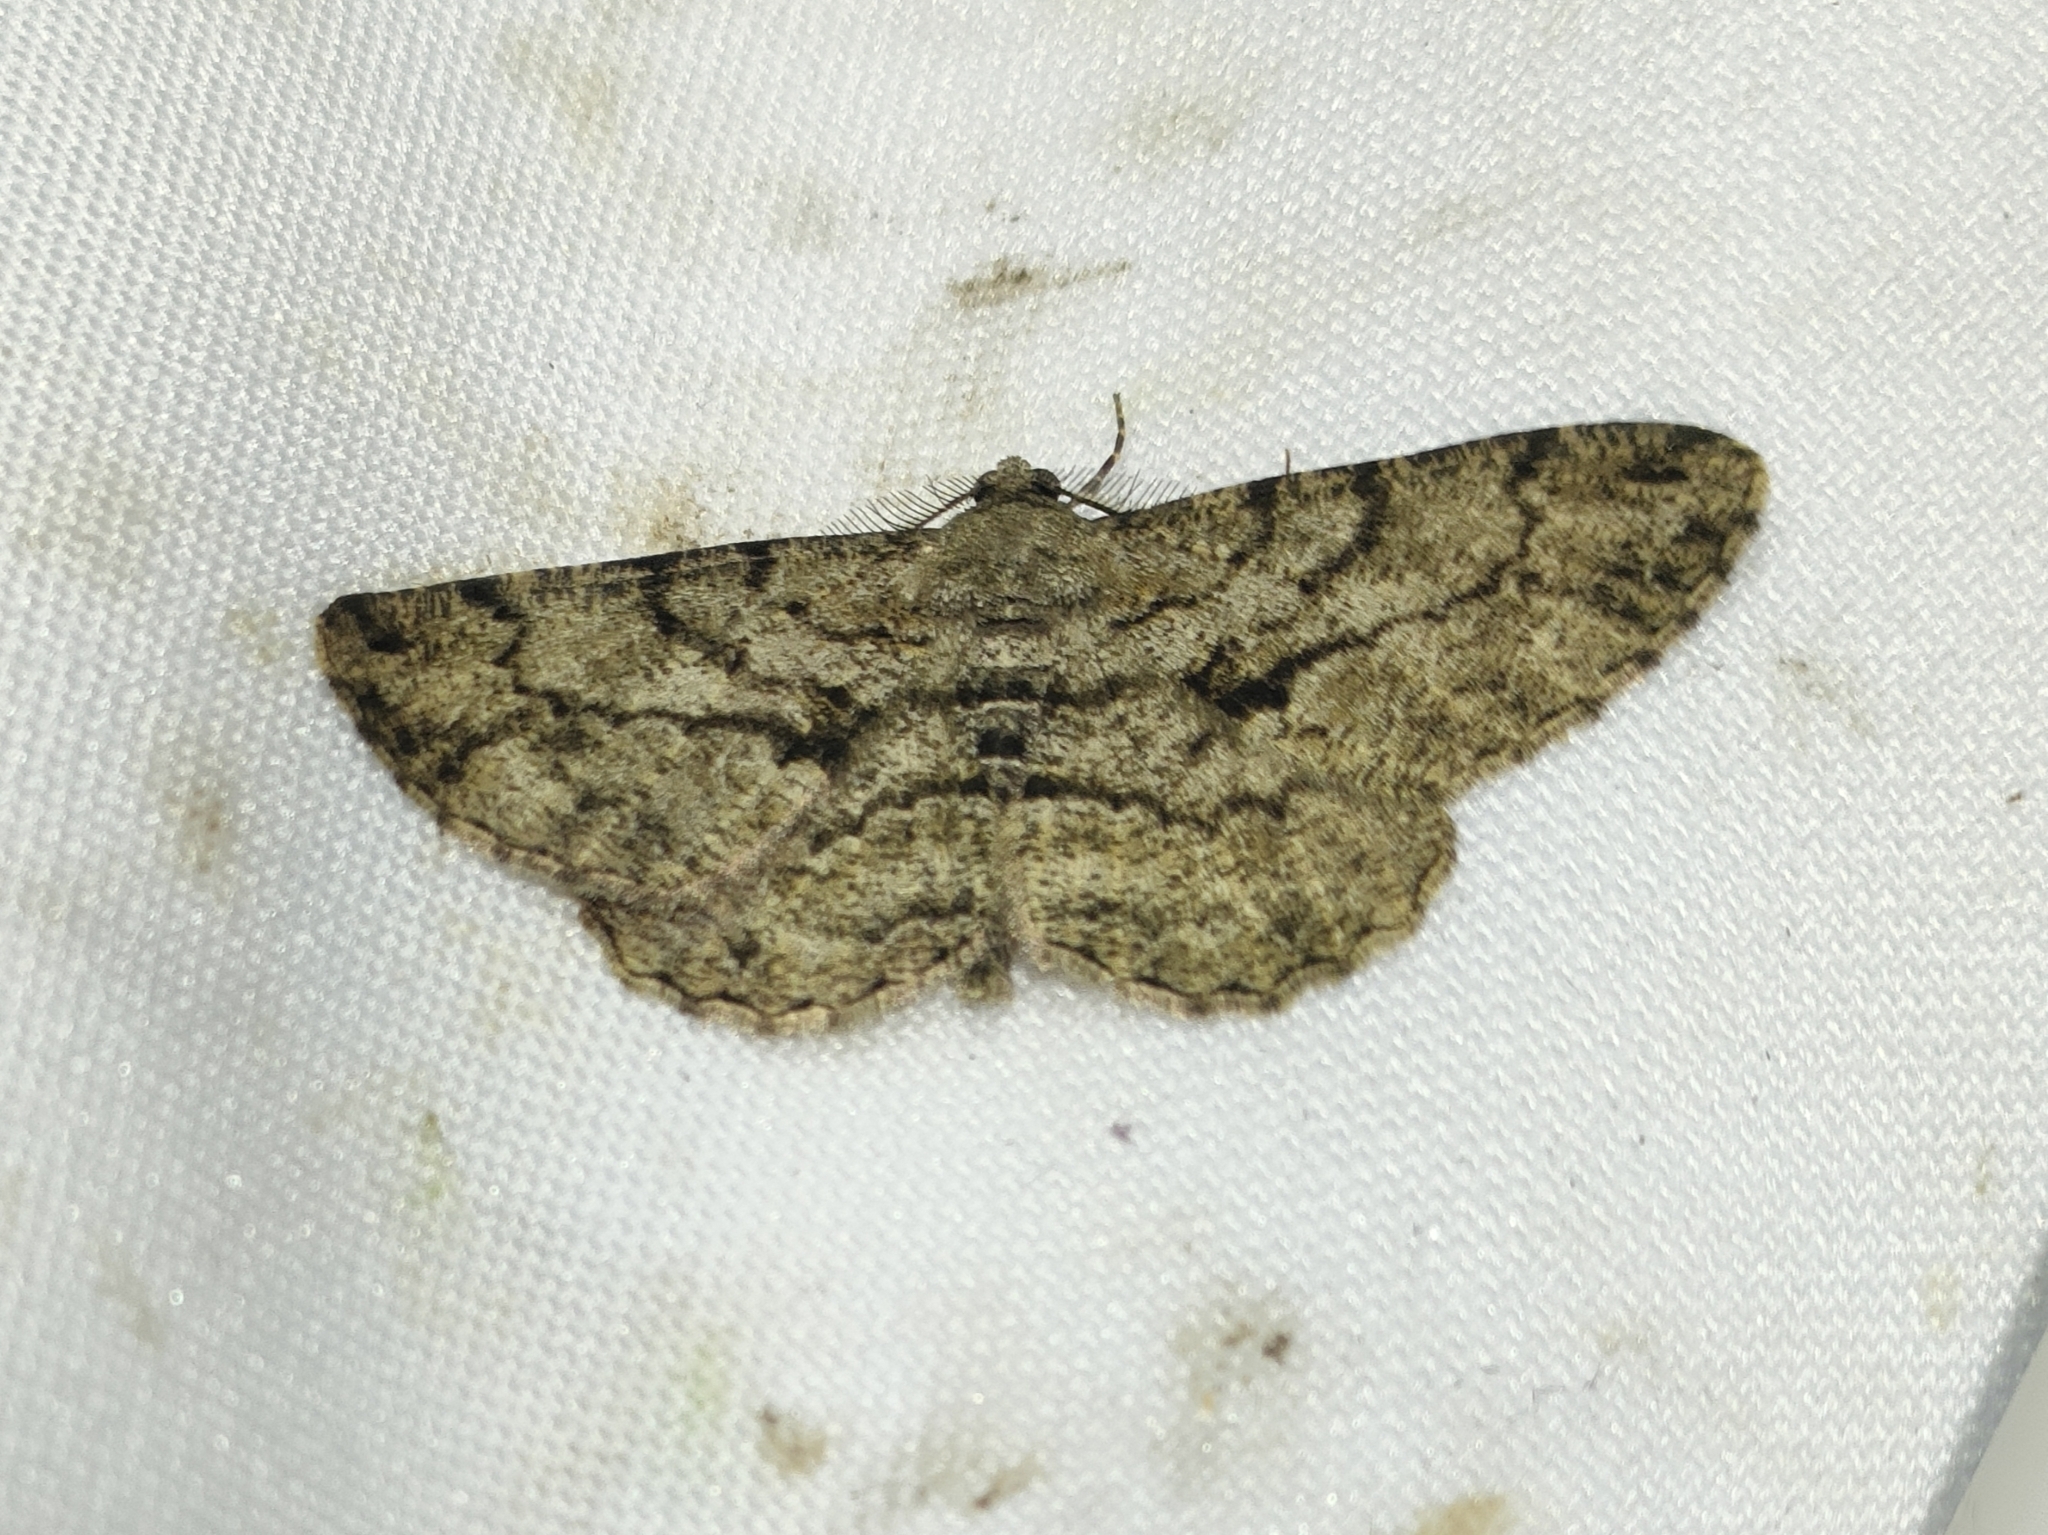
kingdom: Animalia
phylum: Arthropoda
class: Insecta
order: Lepidoptera
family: Geometridae
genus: Peribatodes
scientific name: Peribatodes rhomboidaria
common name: Willow beauty
